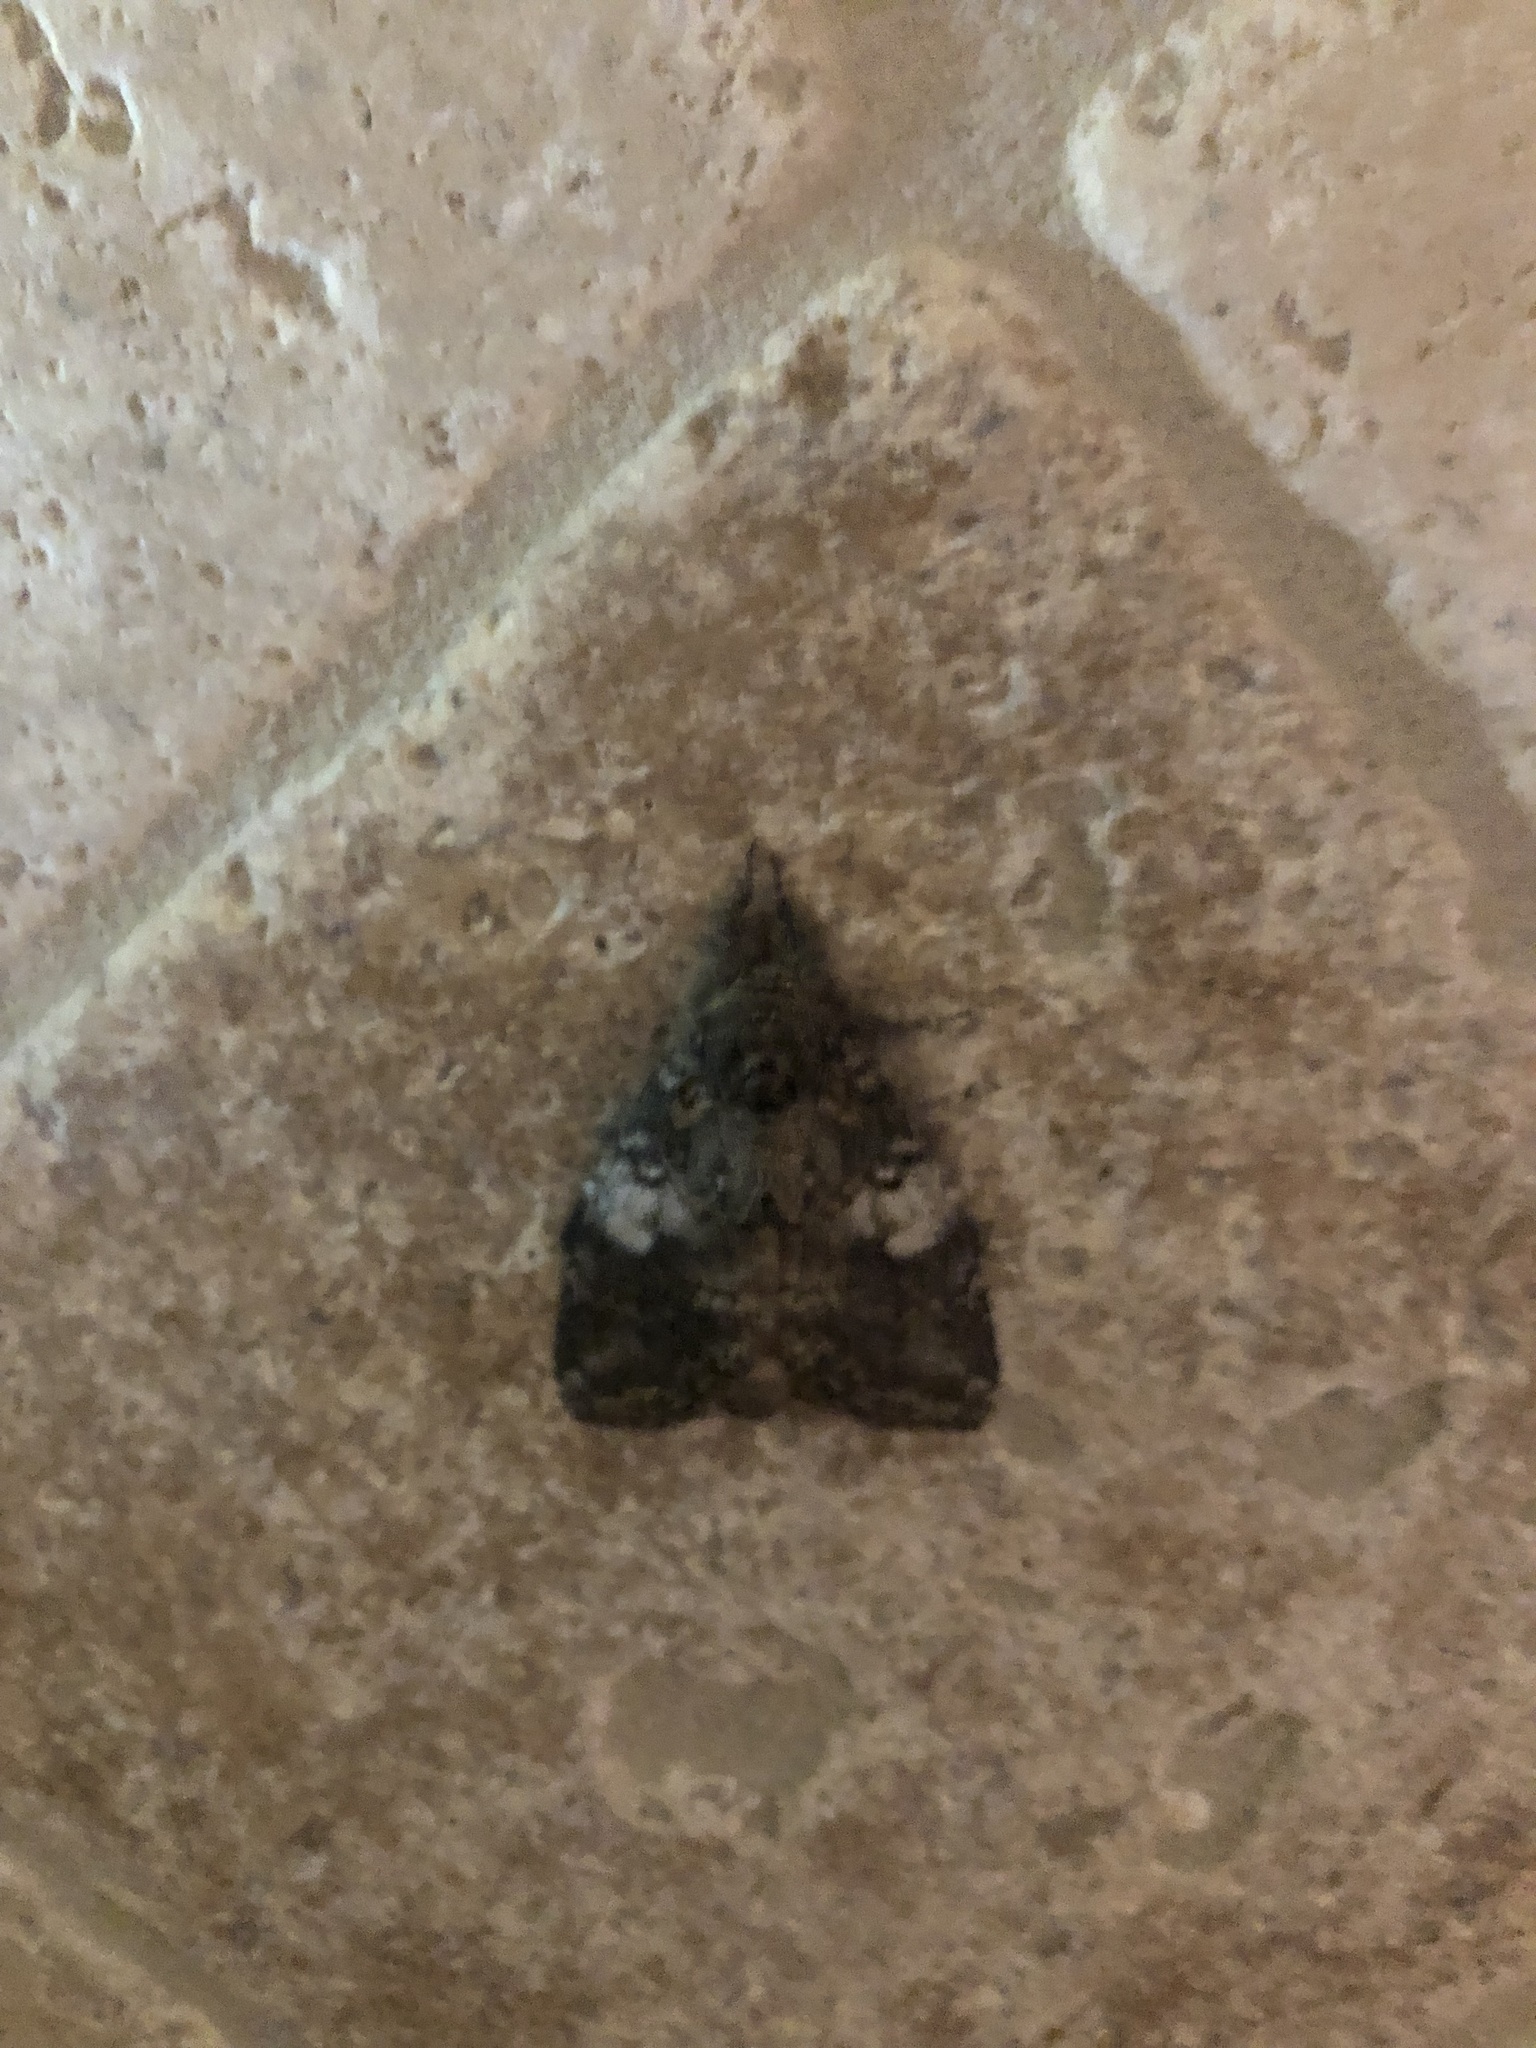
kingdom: Animalia
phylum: Arthropoda
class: Insecta
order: Lepidoptera
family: Notodontidae
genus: Peridea
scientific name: Peridea angulosa
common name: Angulose prominent
